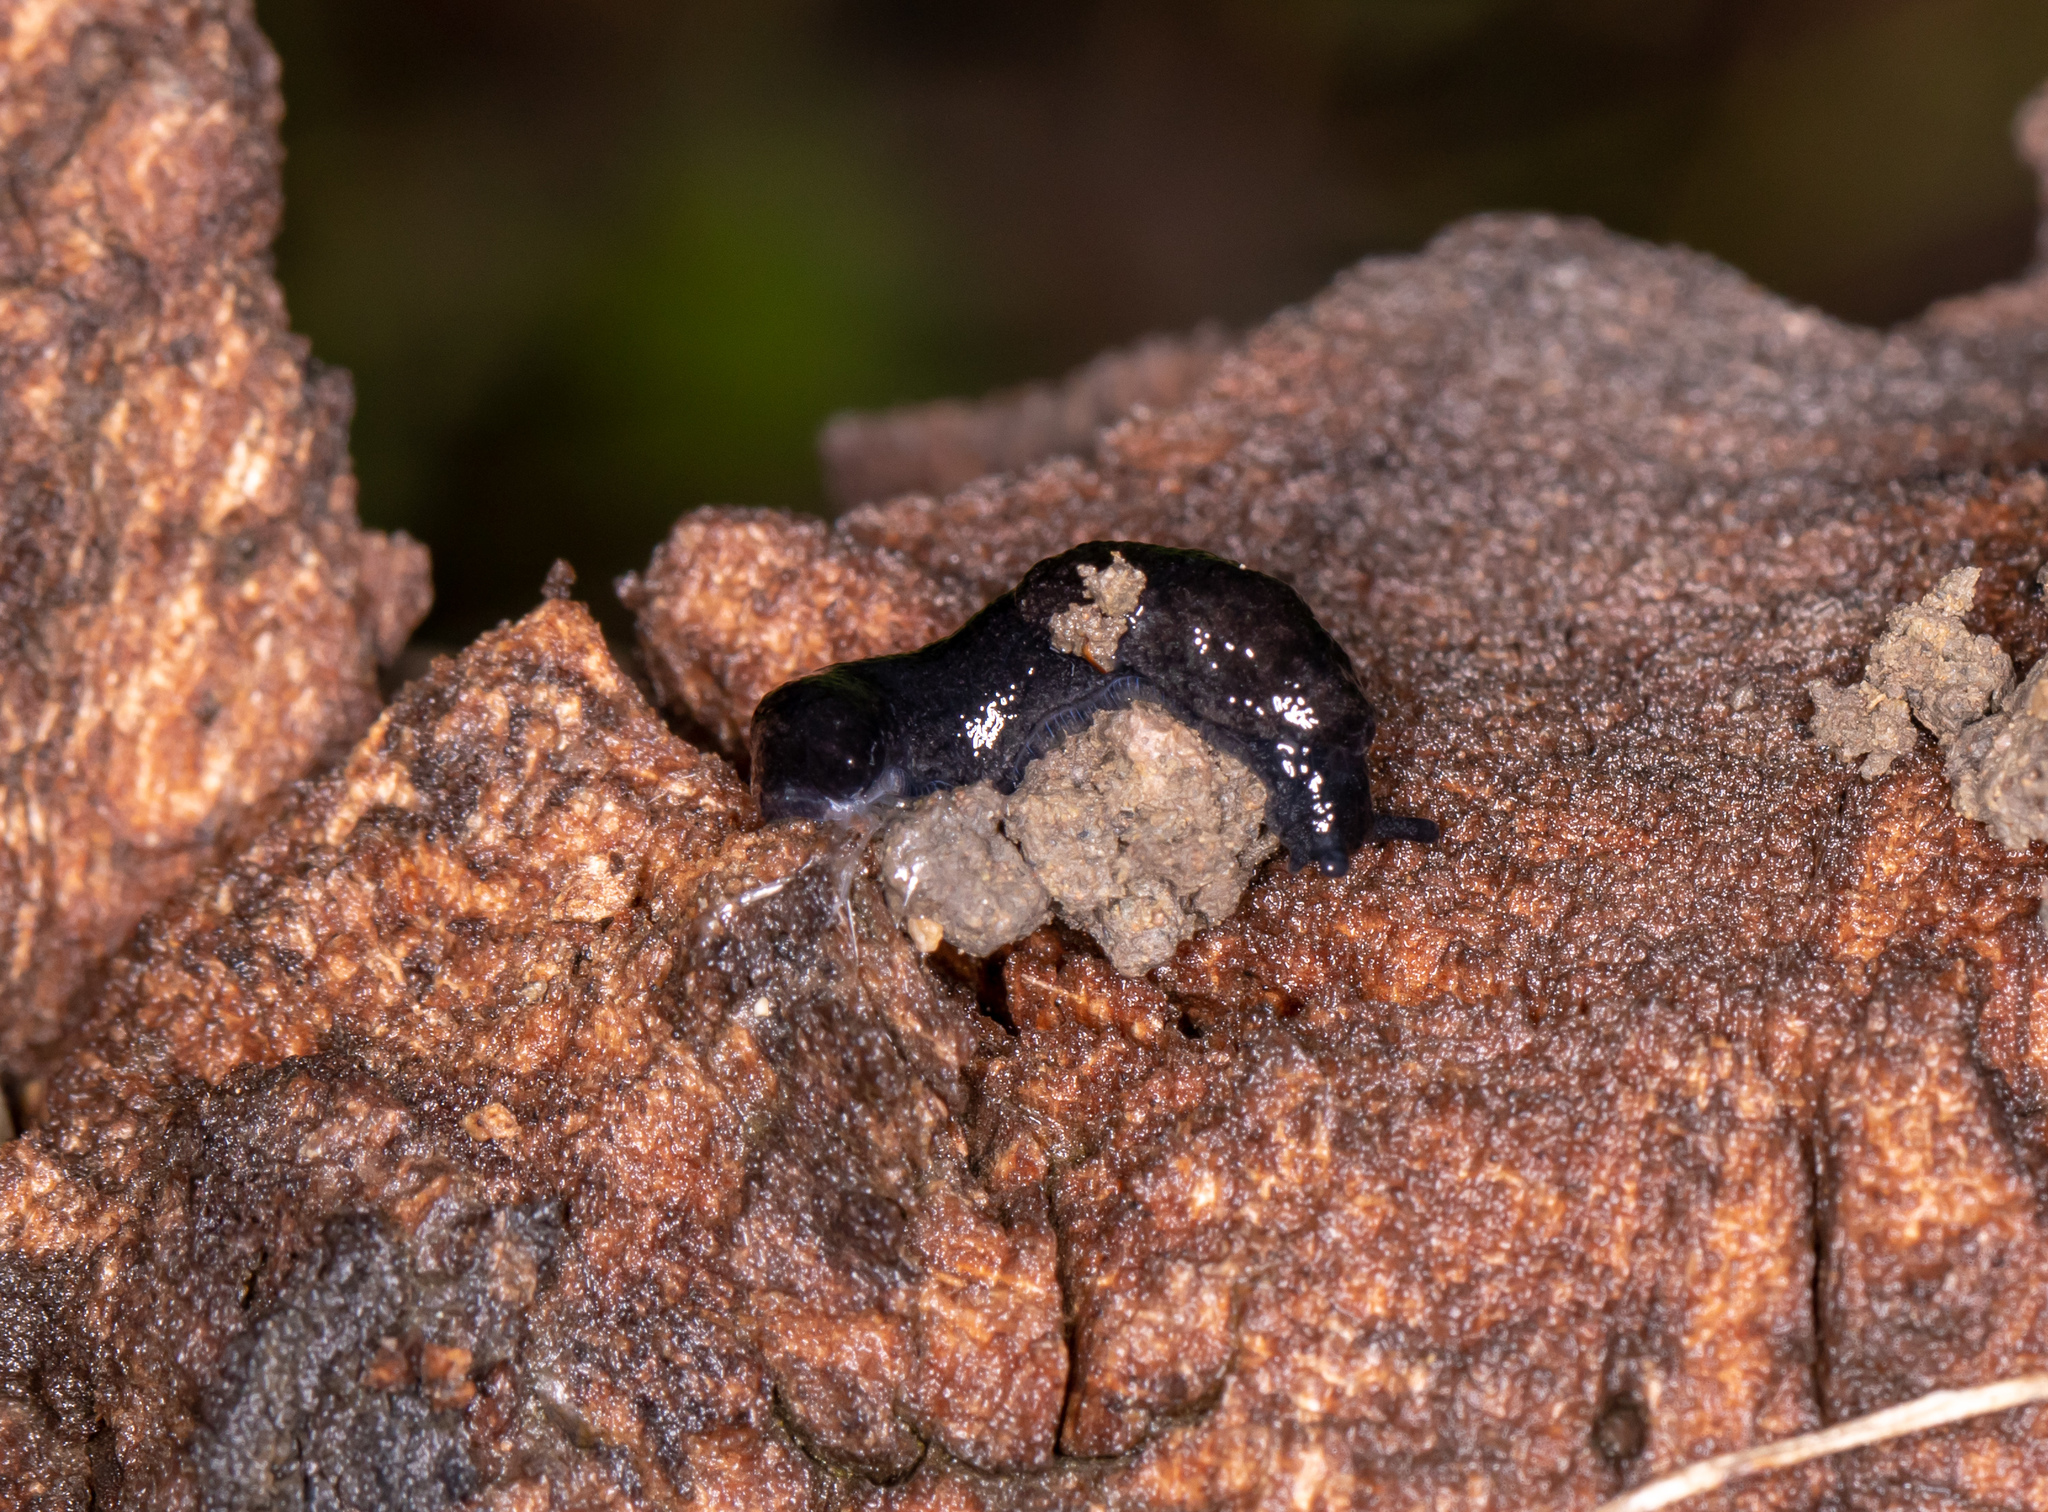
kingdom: Animalia
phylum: Mollusca
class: Gastropoda
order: Stylommatophora
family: Ariolimacidae
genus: Hesperarion
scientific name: Hesperarion hemphilli
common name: Hemphill western slug
